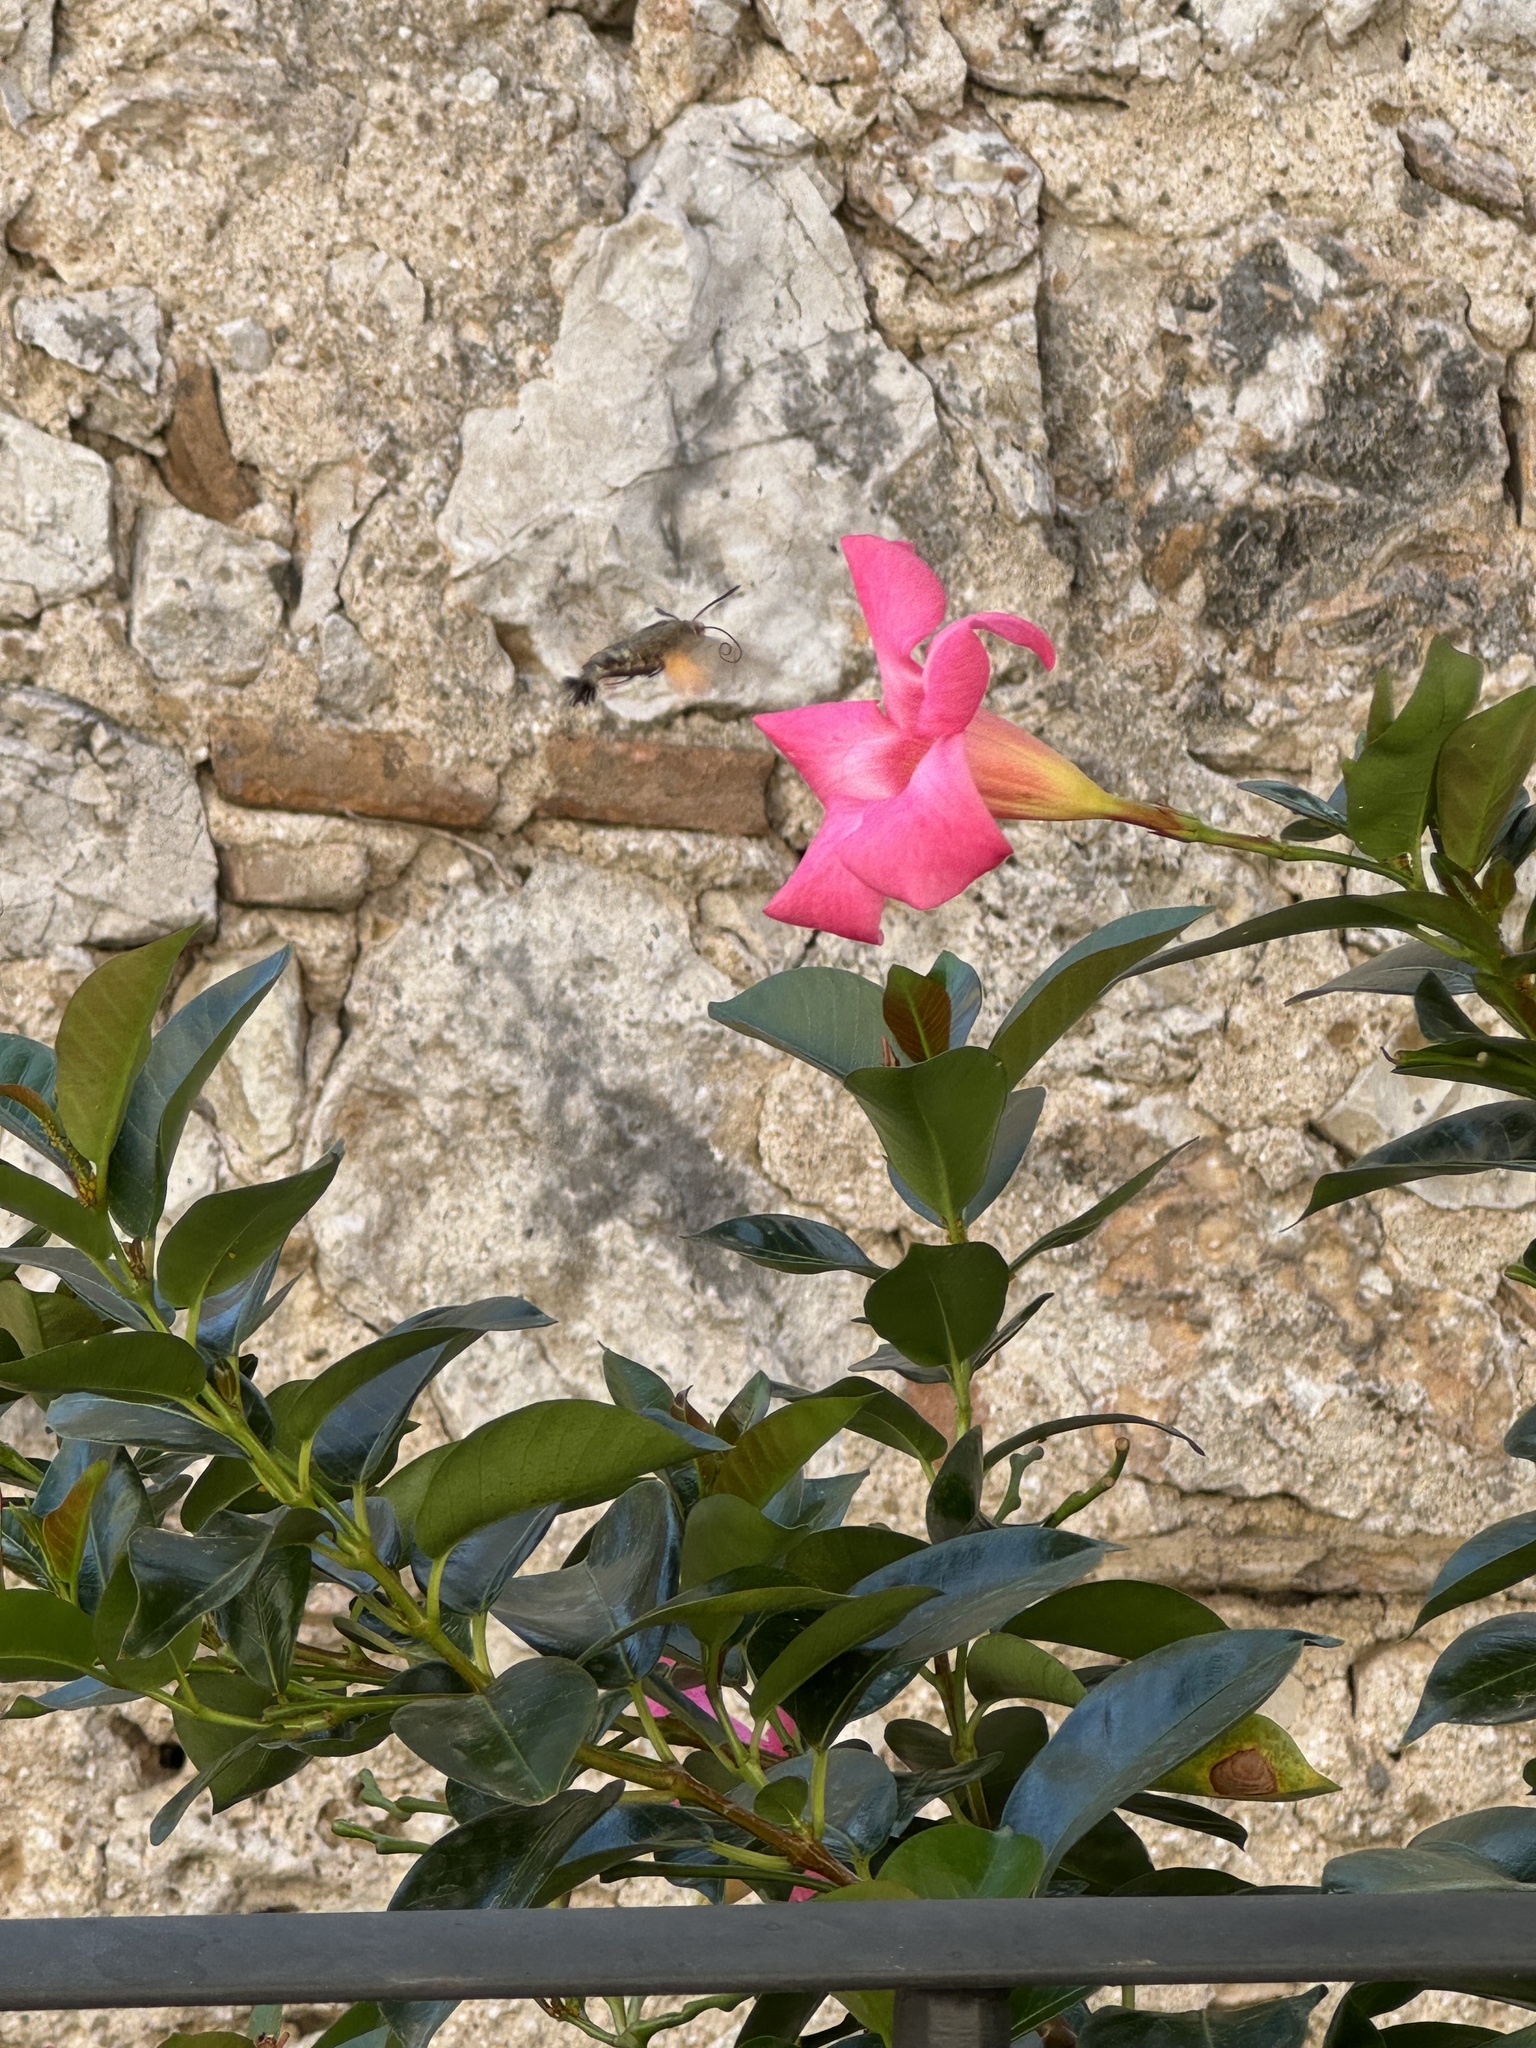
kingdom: Animalia
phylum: Arthropoda
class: Insecta
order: Lepidoptera
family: Sphingidae
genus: Macroglossum
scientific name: Macroglossum stellatarum
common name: Humming-bird hawk-moth
